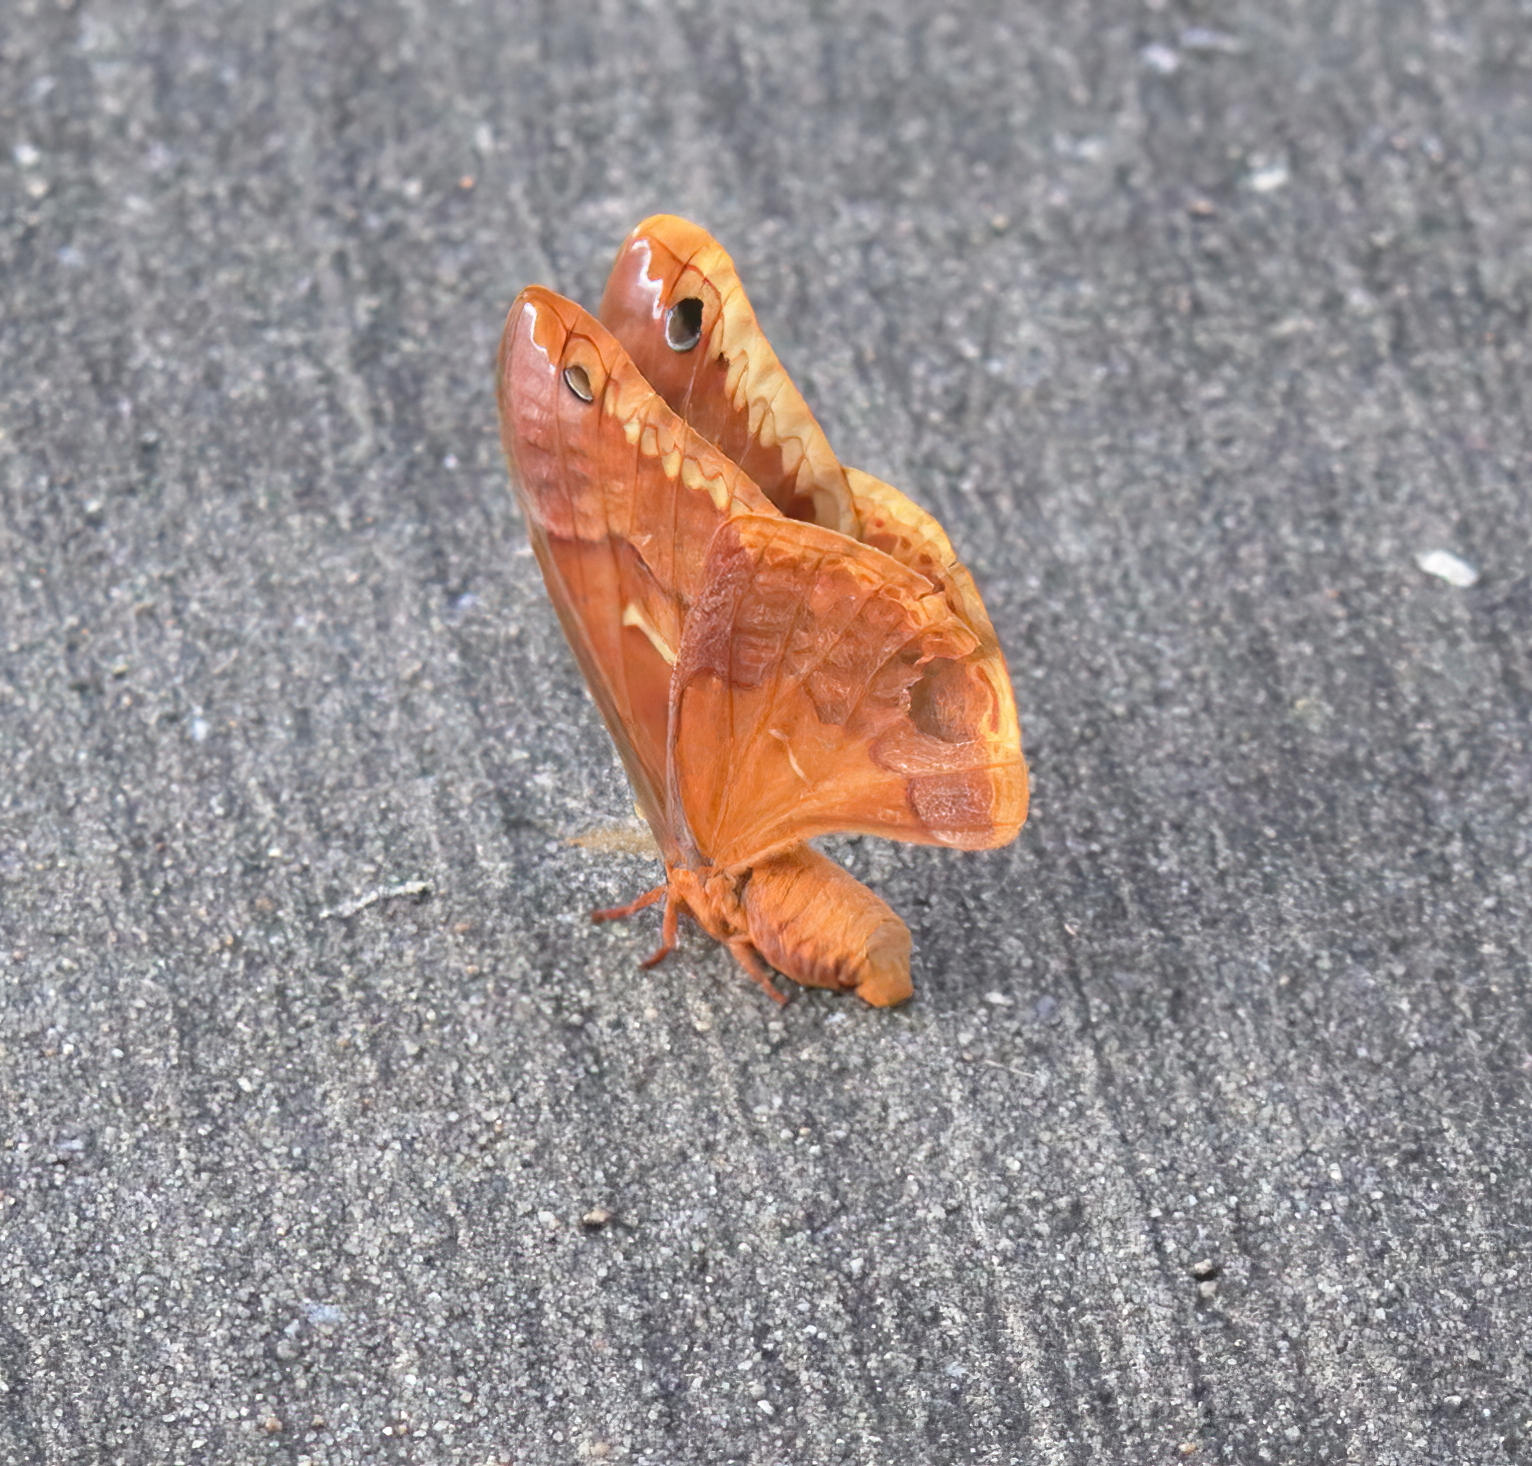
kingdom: Animalia
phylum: Arthropoda
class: Insecta
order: Lepidoptera
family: Saturniidae
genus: Callosamia
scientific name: Callosamia securifera
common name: Sweetbay silkmoth
